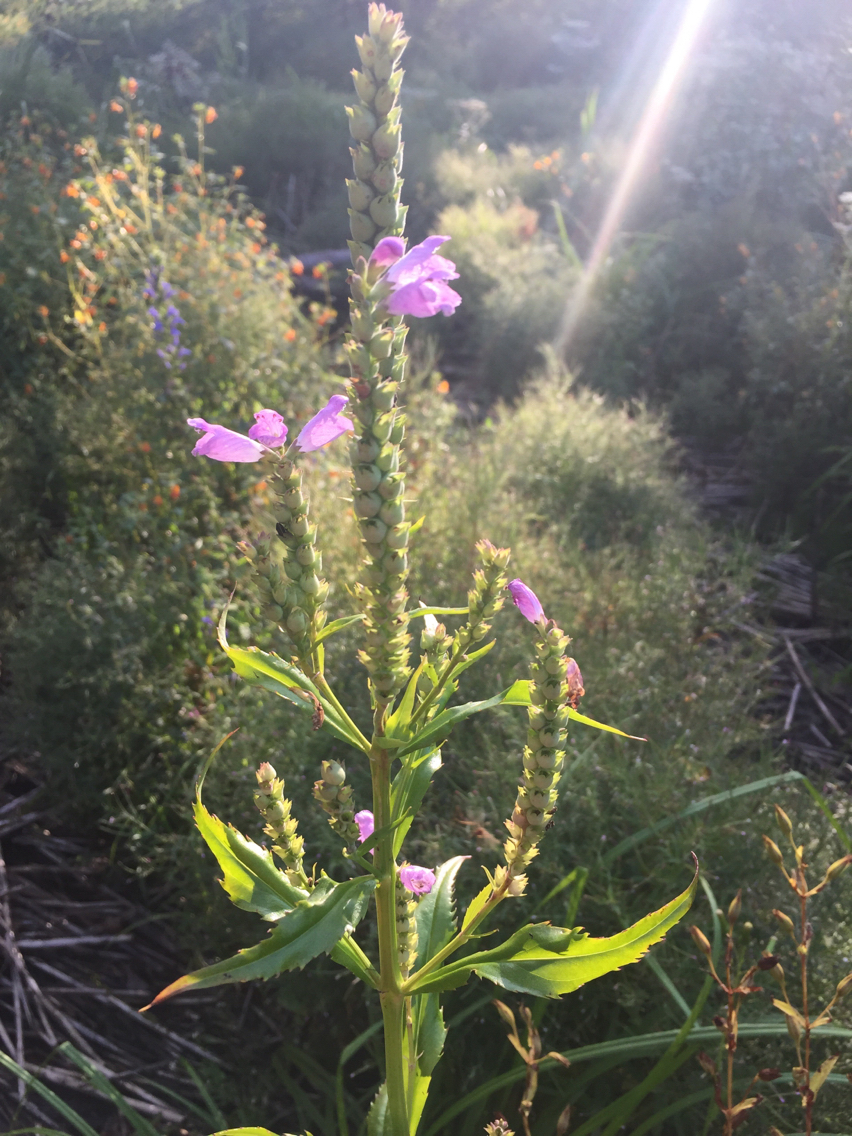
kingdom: Plantae
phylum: Tracheophyta
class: Magnoliopsida
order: Lamiales
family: Lamiaceae
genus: Physostegia
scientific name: Physostegia virginiana
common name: Obedient-plant
